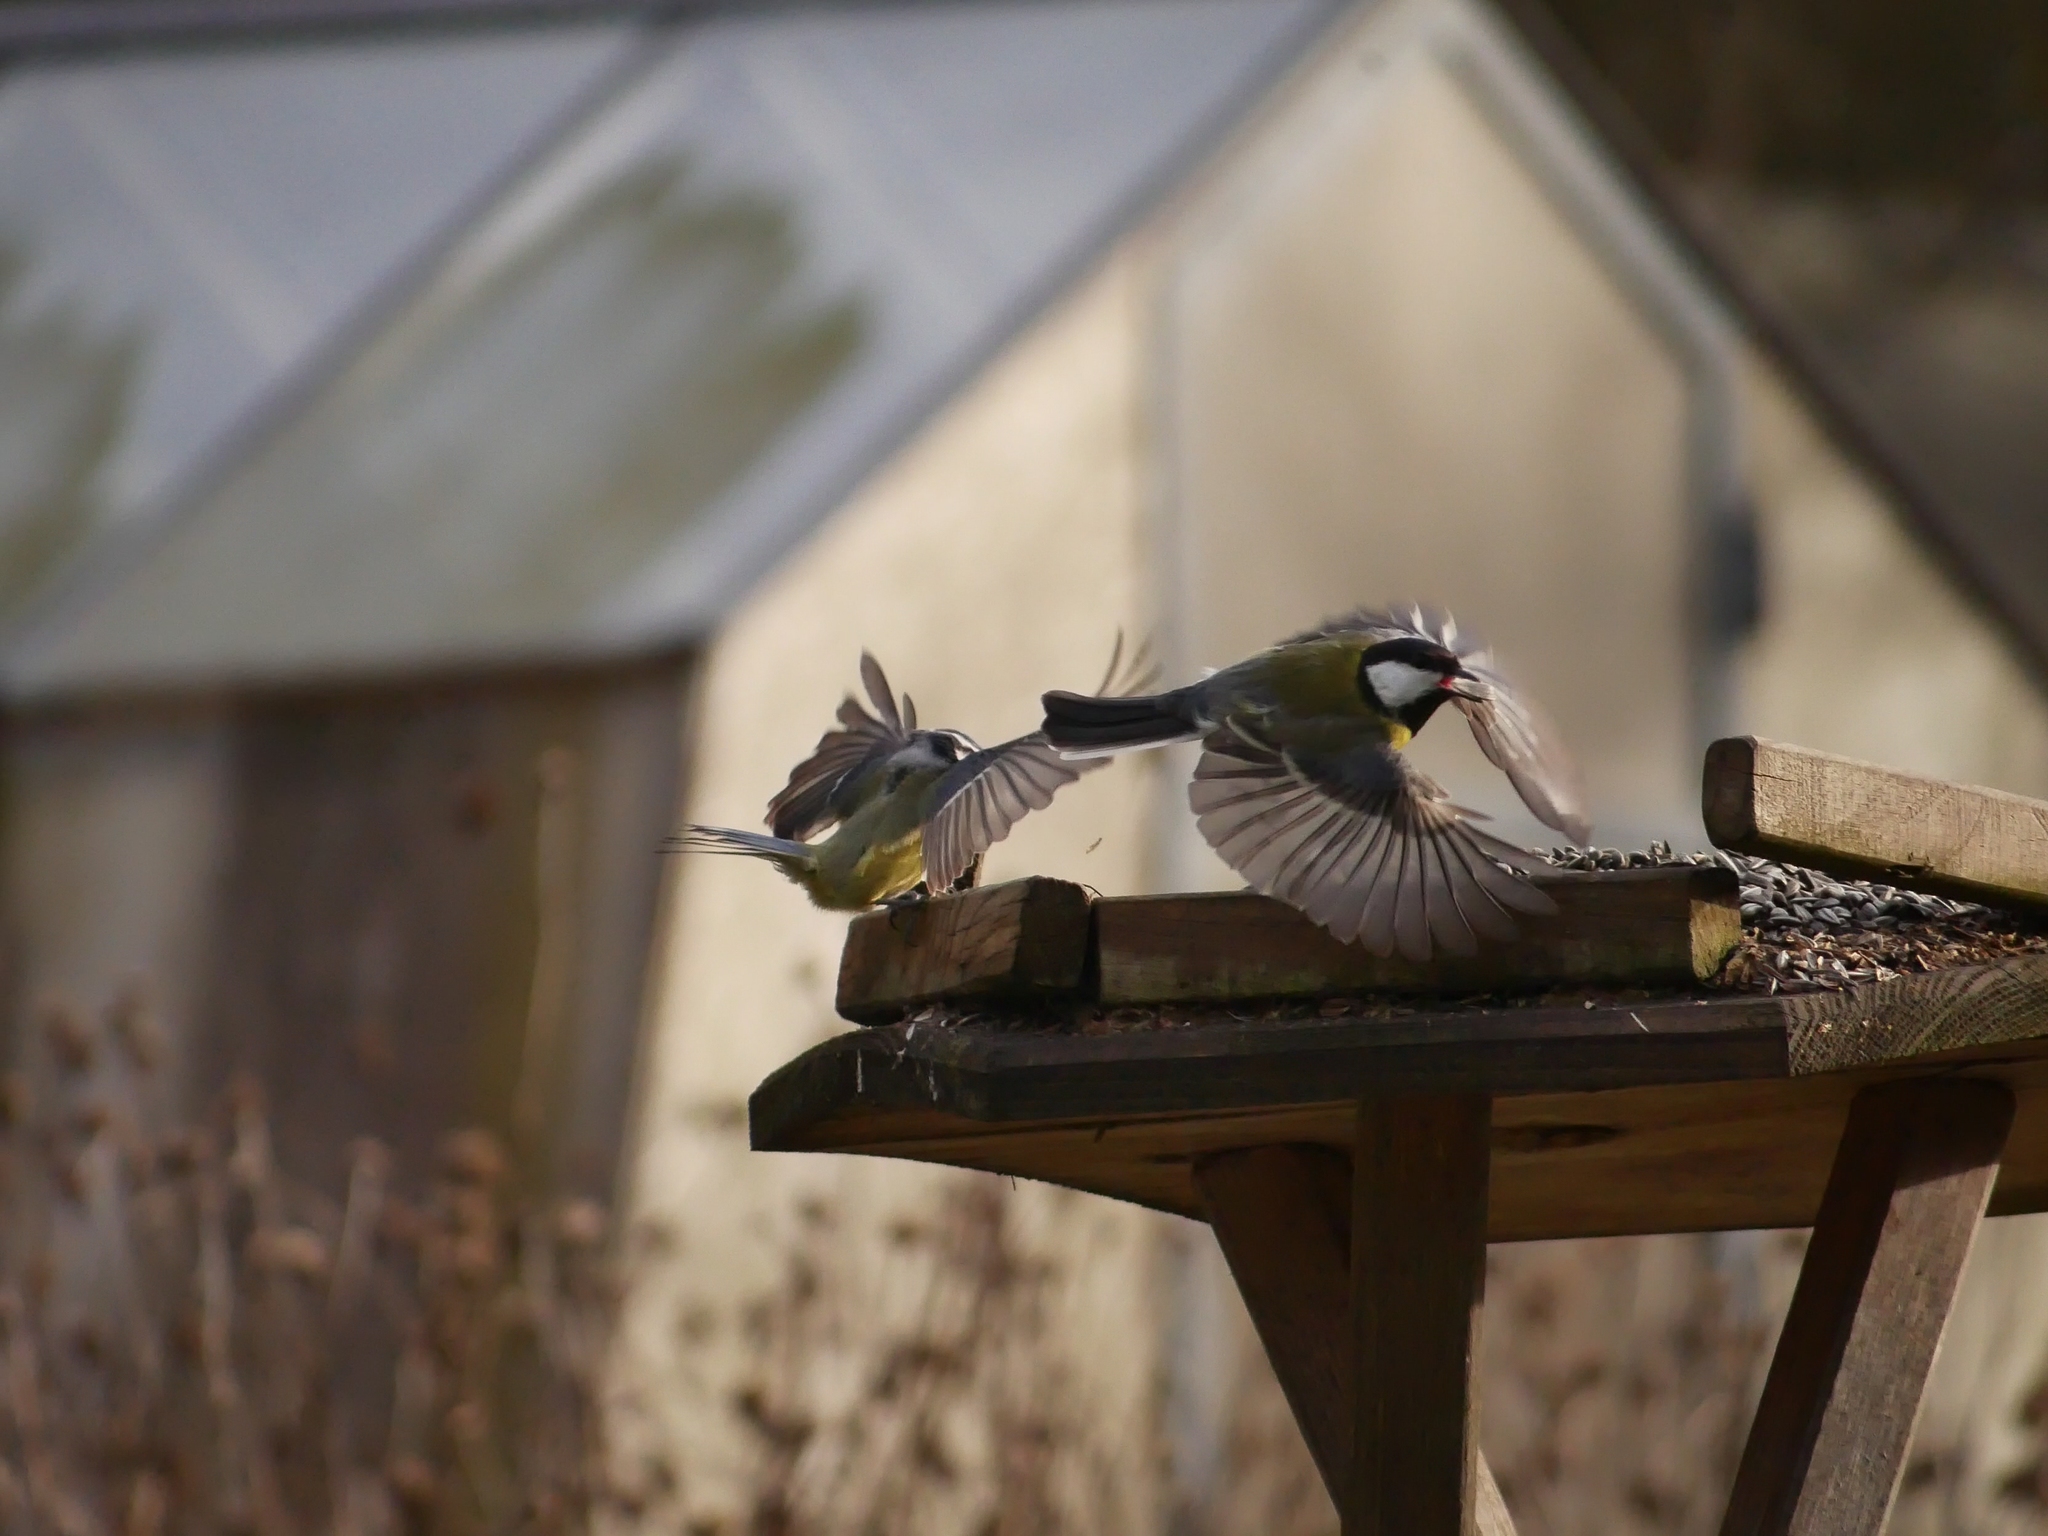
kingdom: Animalia
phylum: Chordata
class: Aves
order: Passeriformes
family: Paridae
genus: Parus
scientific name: Parus major
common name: Great tit
